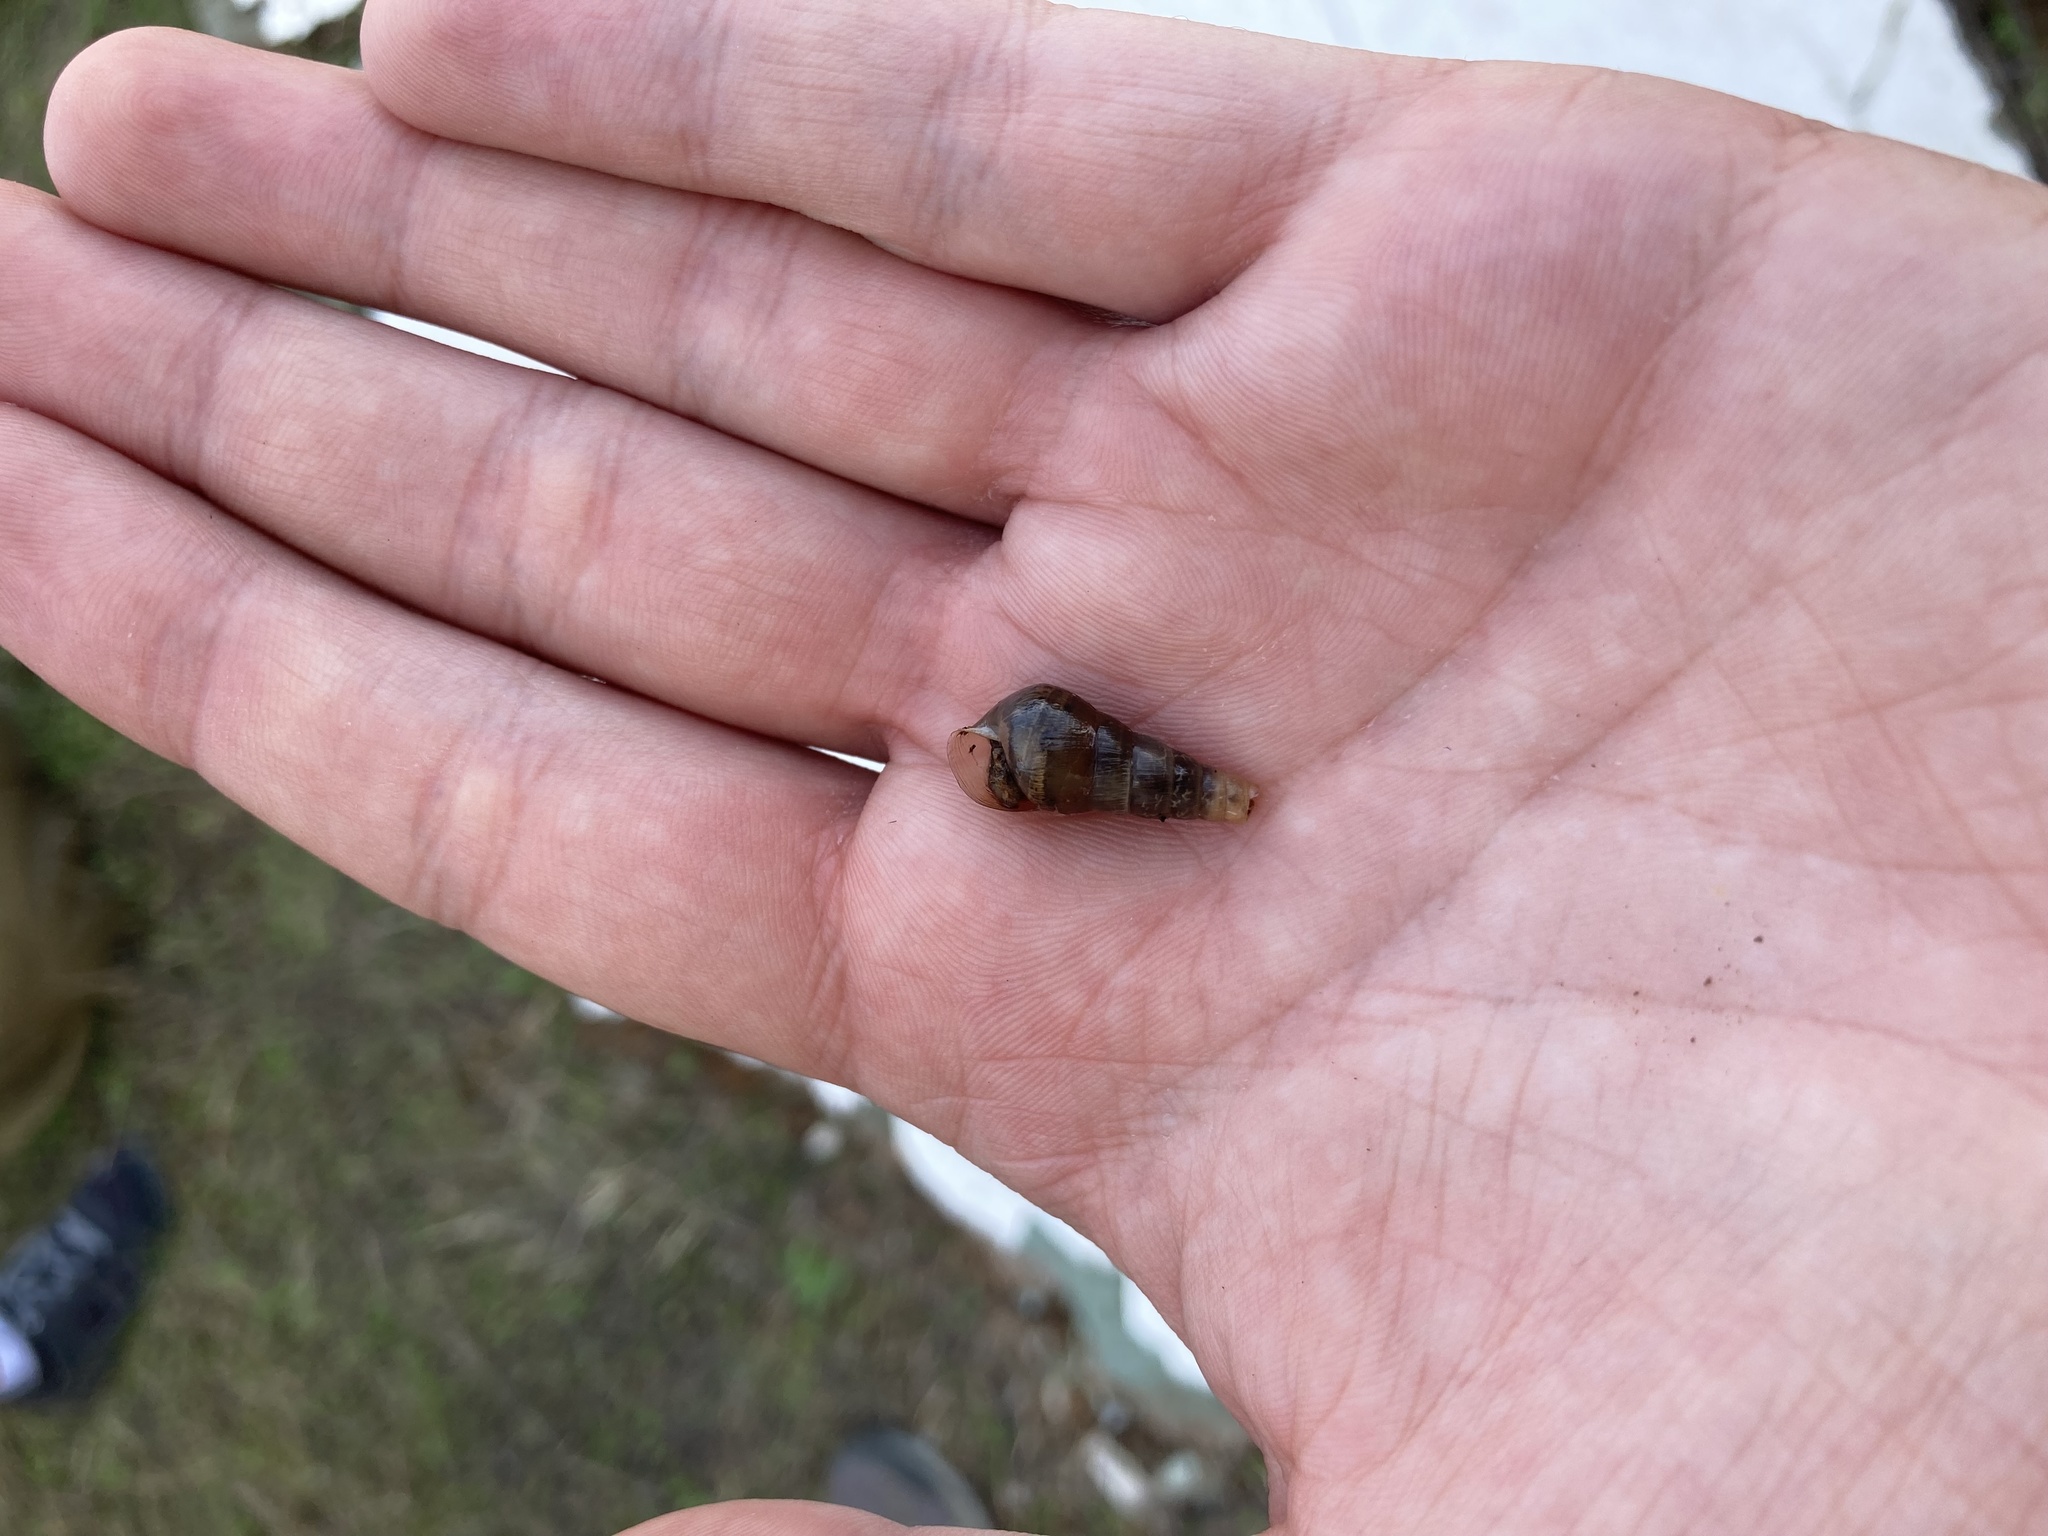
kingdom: Animalia
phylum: Mollusca
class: Gastropoda
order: Stylommatophora
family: Achatinidae
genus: Rumina
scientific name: Rumina decollata
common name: Decollate snail
